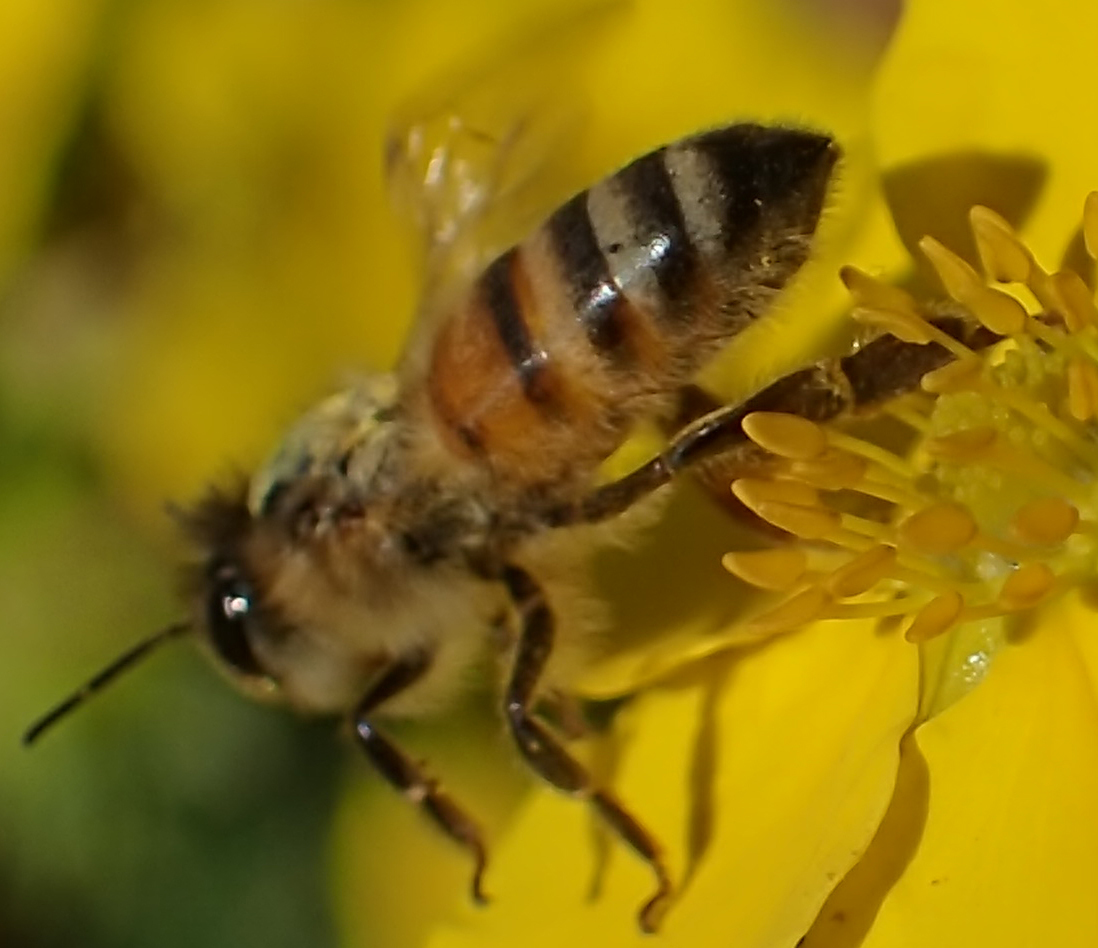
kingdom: Animalia
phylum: Arthropoda
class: Insecta
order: Hymenoptera
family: Apidae
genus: Apis
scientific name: Apis mellifera
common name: Honey bee
